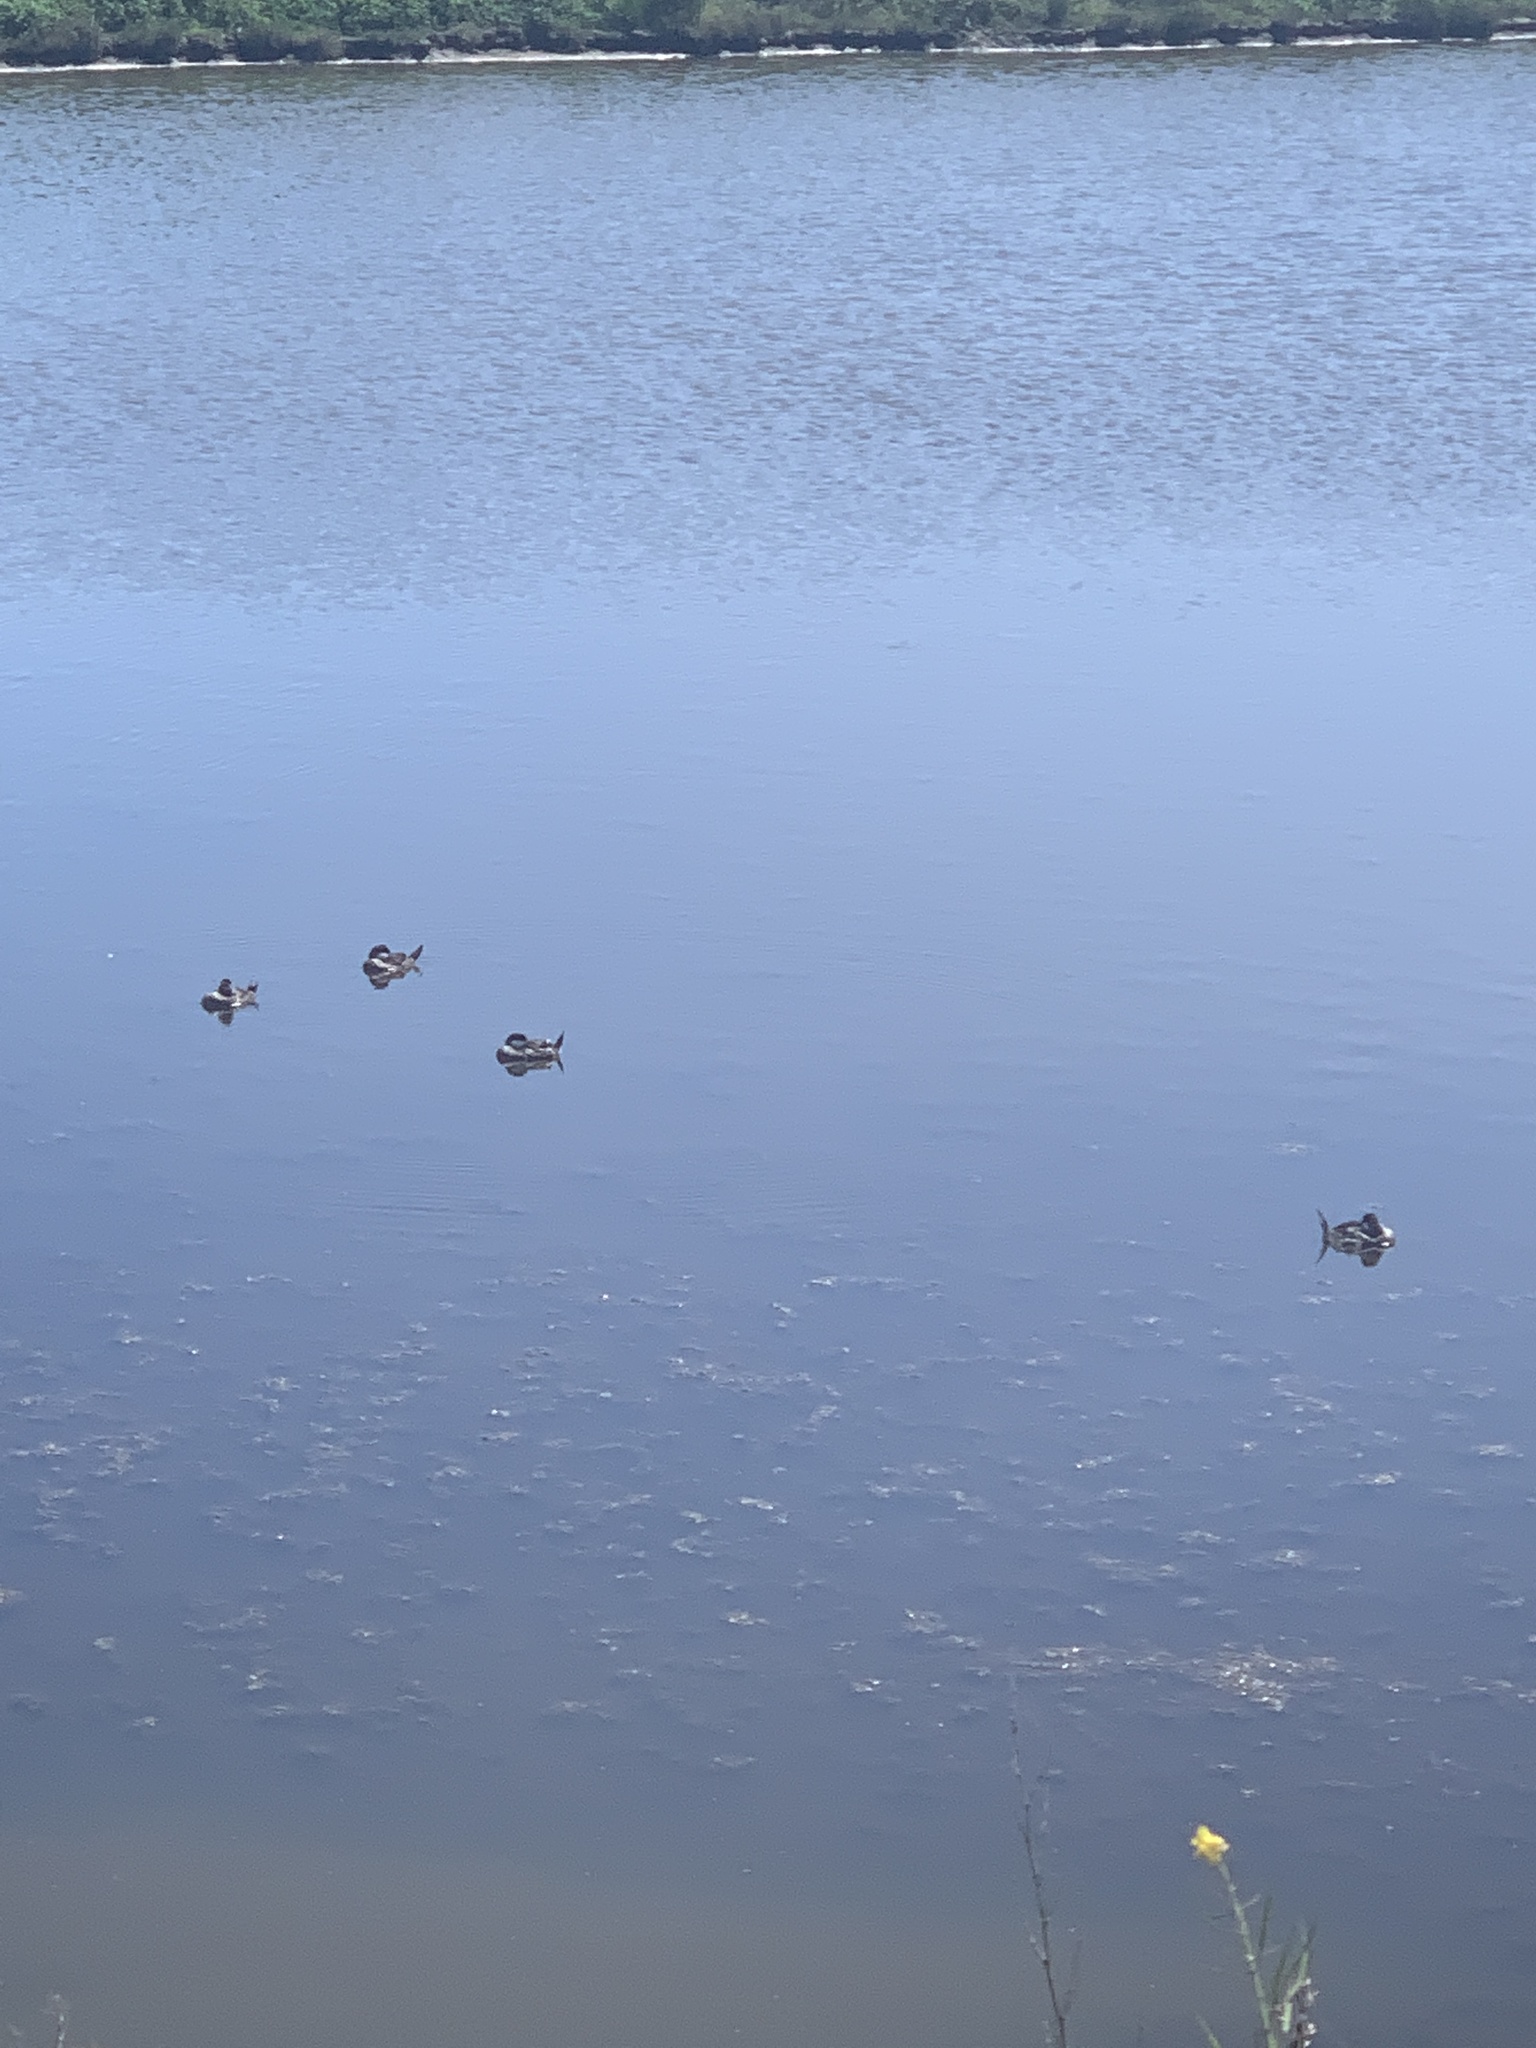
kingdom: Animalia
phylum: Chordata
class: Aves
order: Anseriformes
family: Anatidae
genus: Oxyura
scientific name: Oxyura jamaicensis
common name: Ruddy duck
